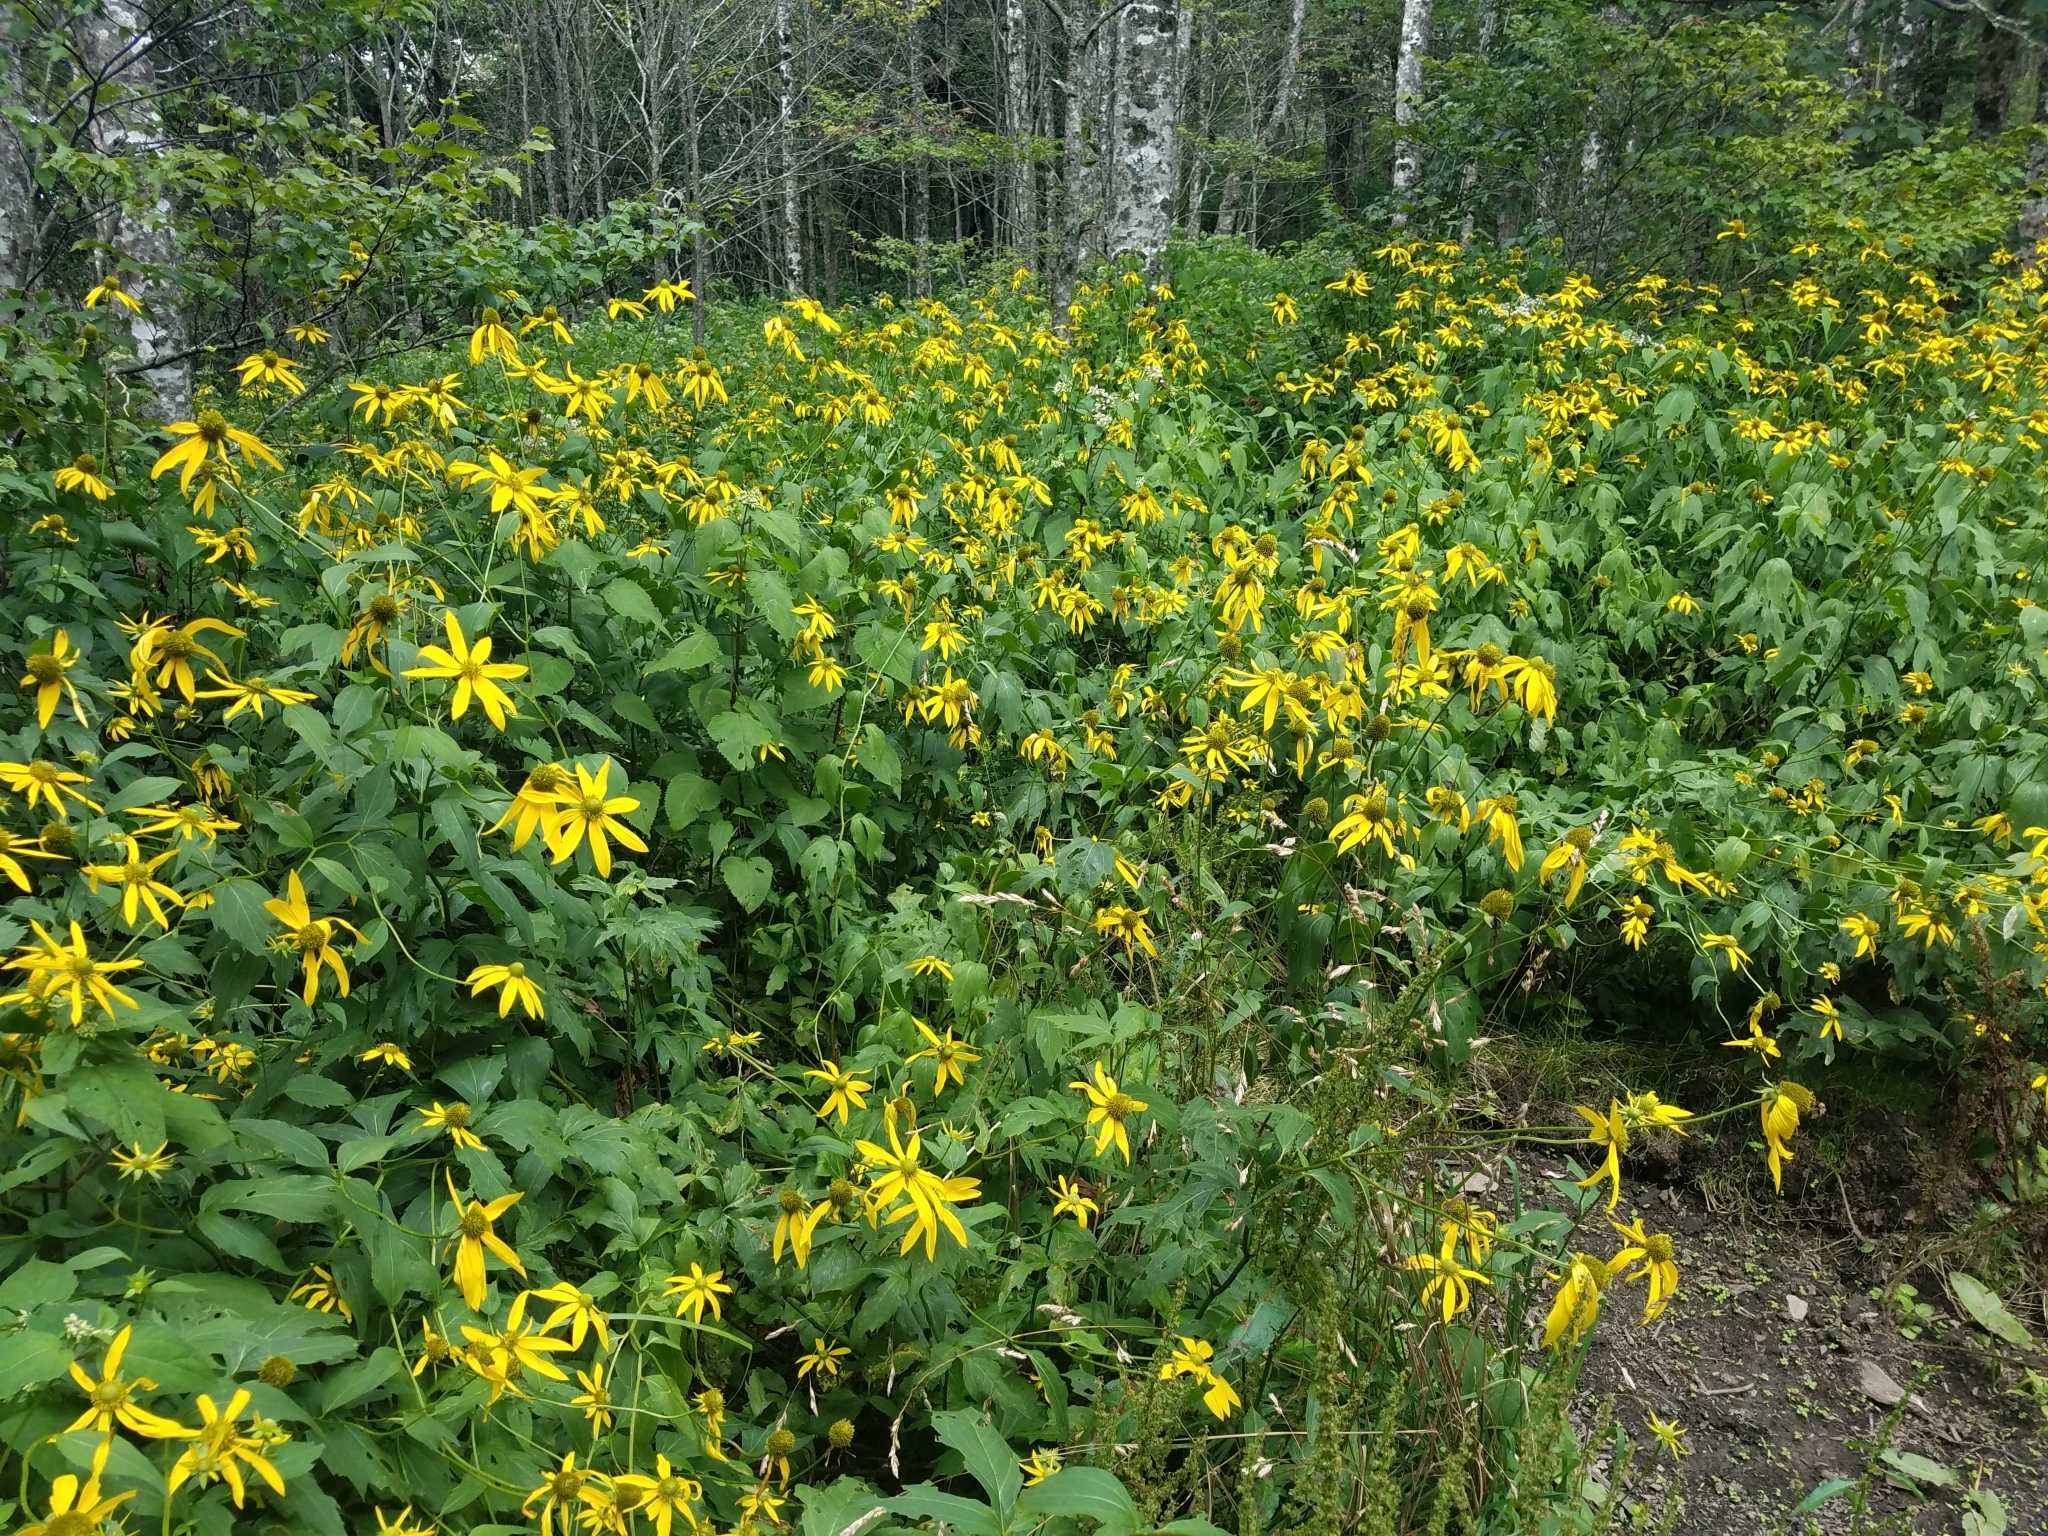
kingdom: Plantae
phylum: Tracheophyta
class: Magnoliopsida
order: Asterales
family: Asteraceae
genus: Rudbeckia
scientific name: Rudbeckia laciniata
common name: Coneflower
